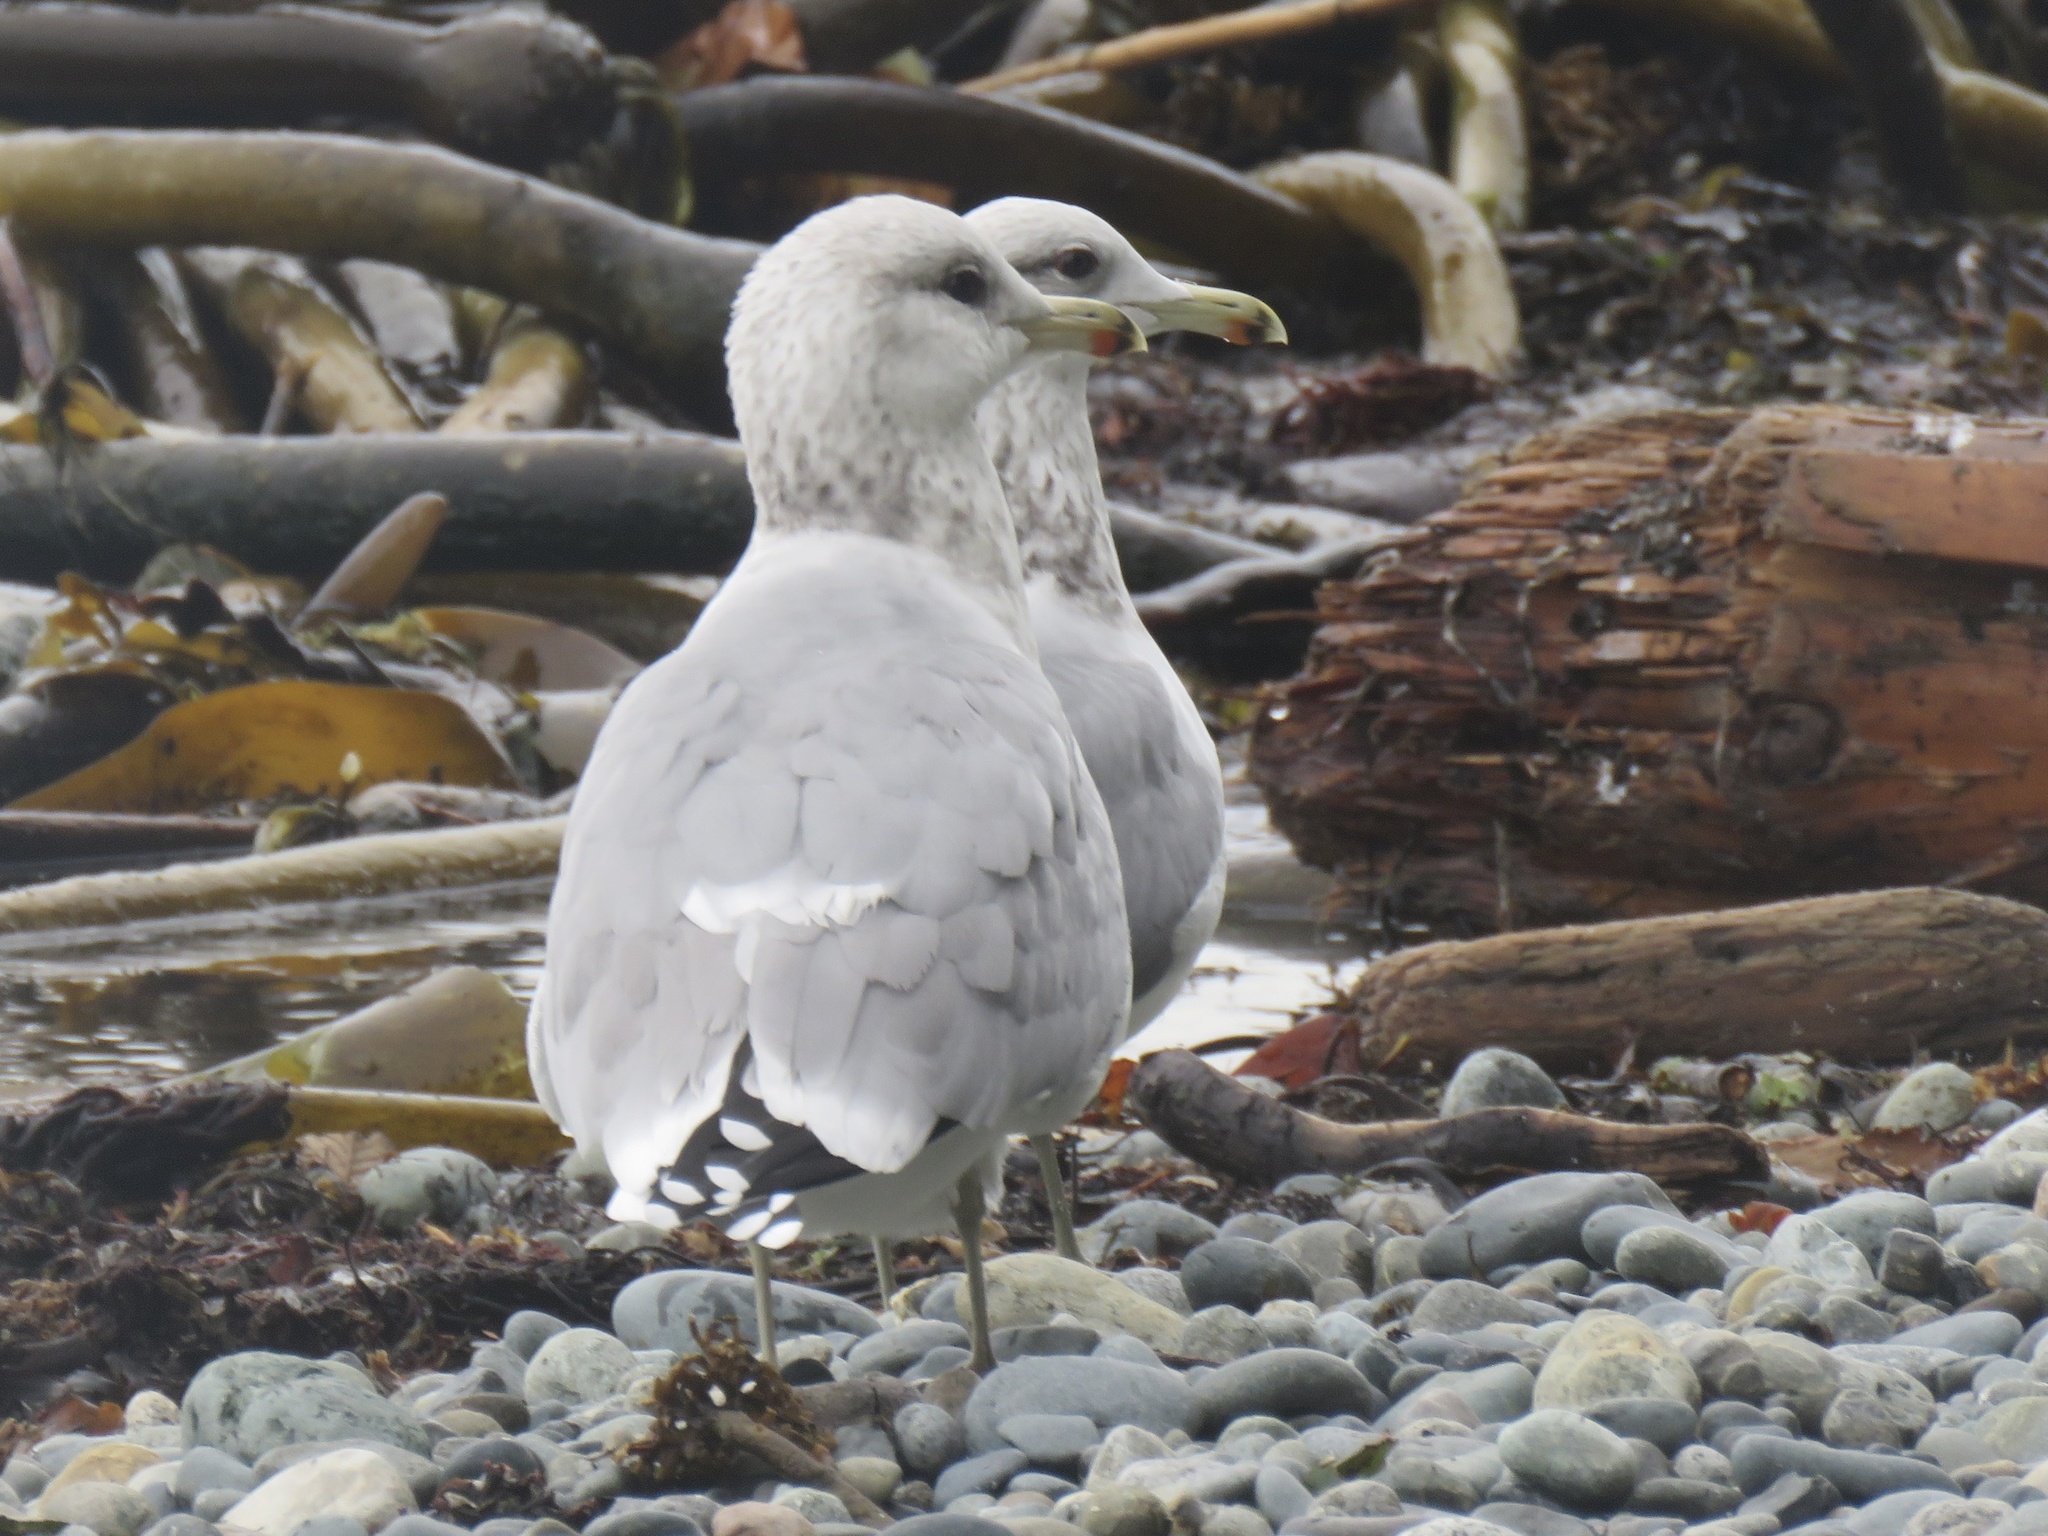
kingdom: Animalia
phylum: Chordata
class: Aves
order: Charadriiformes
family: Laridae
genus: Larus
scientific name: Larus californicus
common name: California gull
